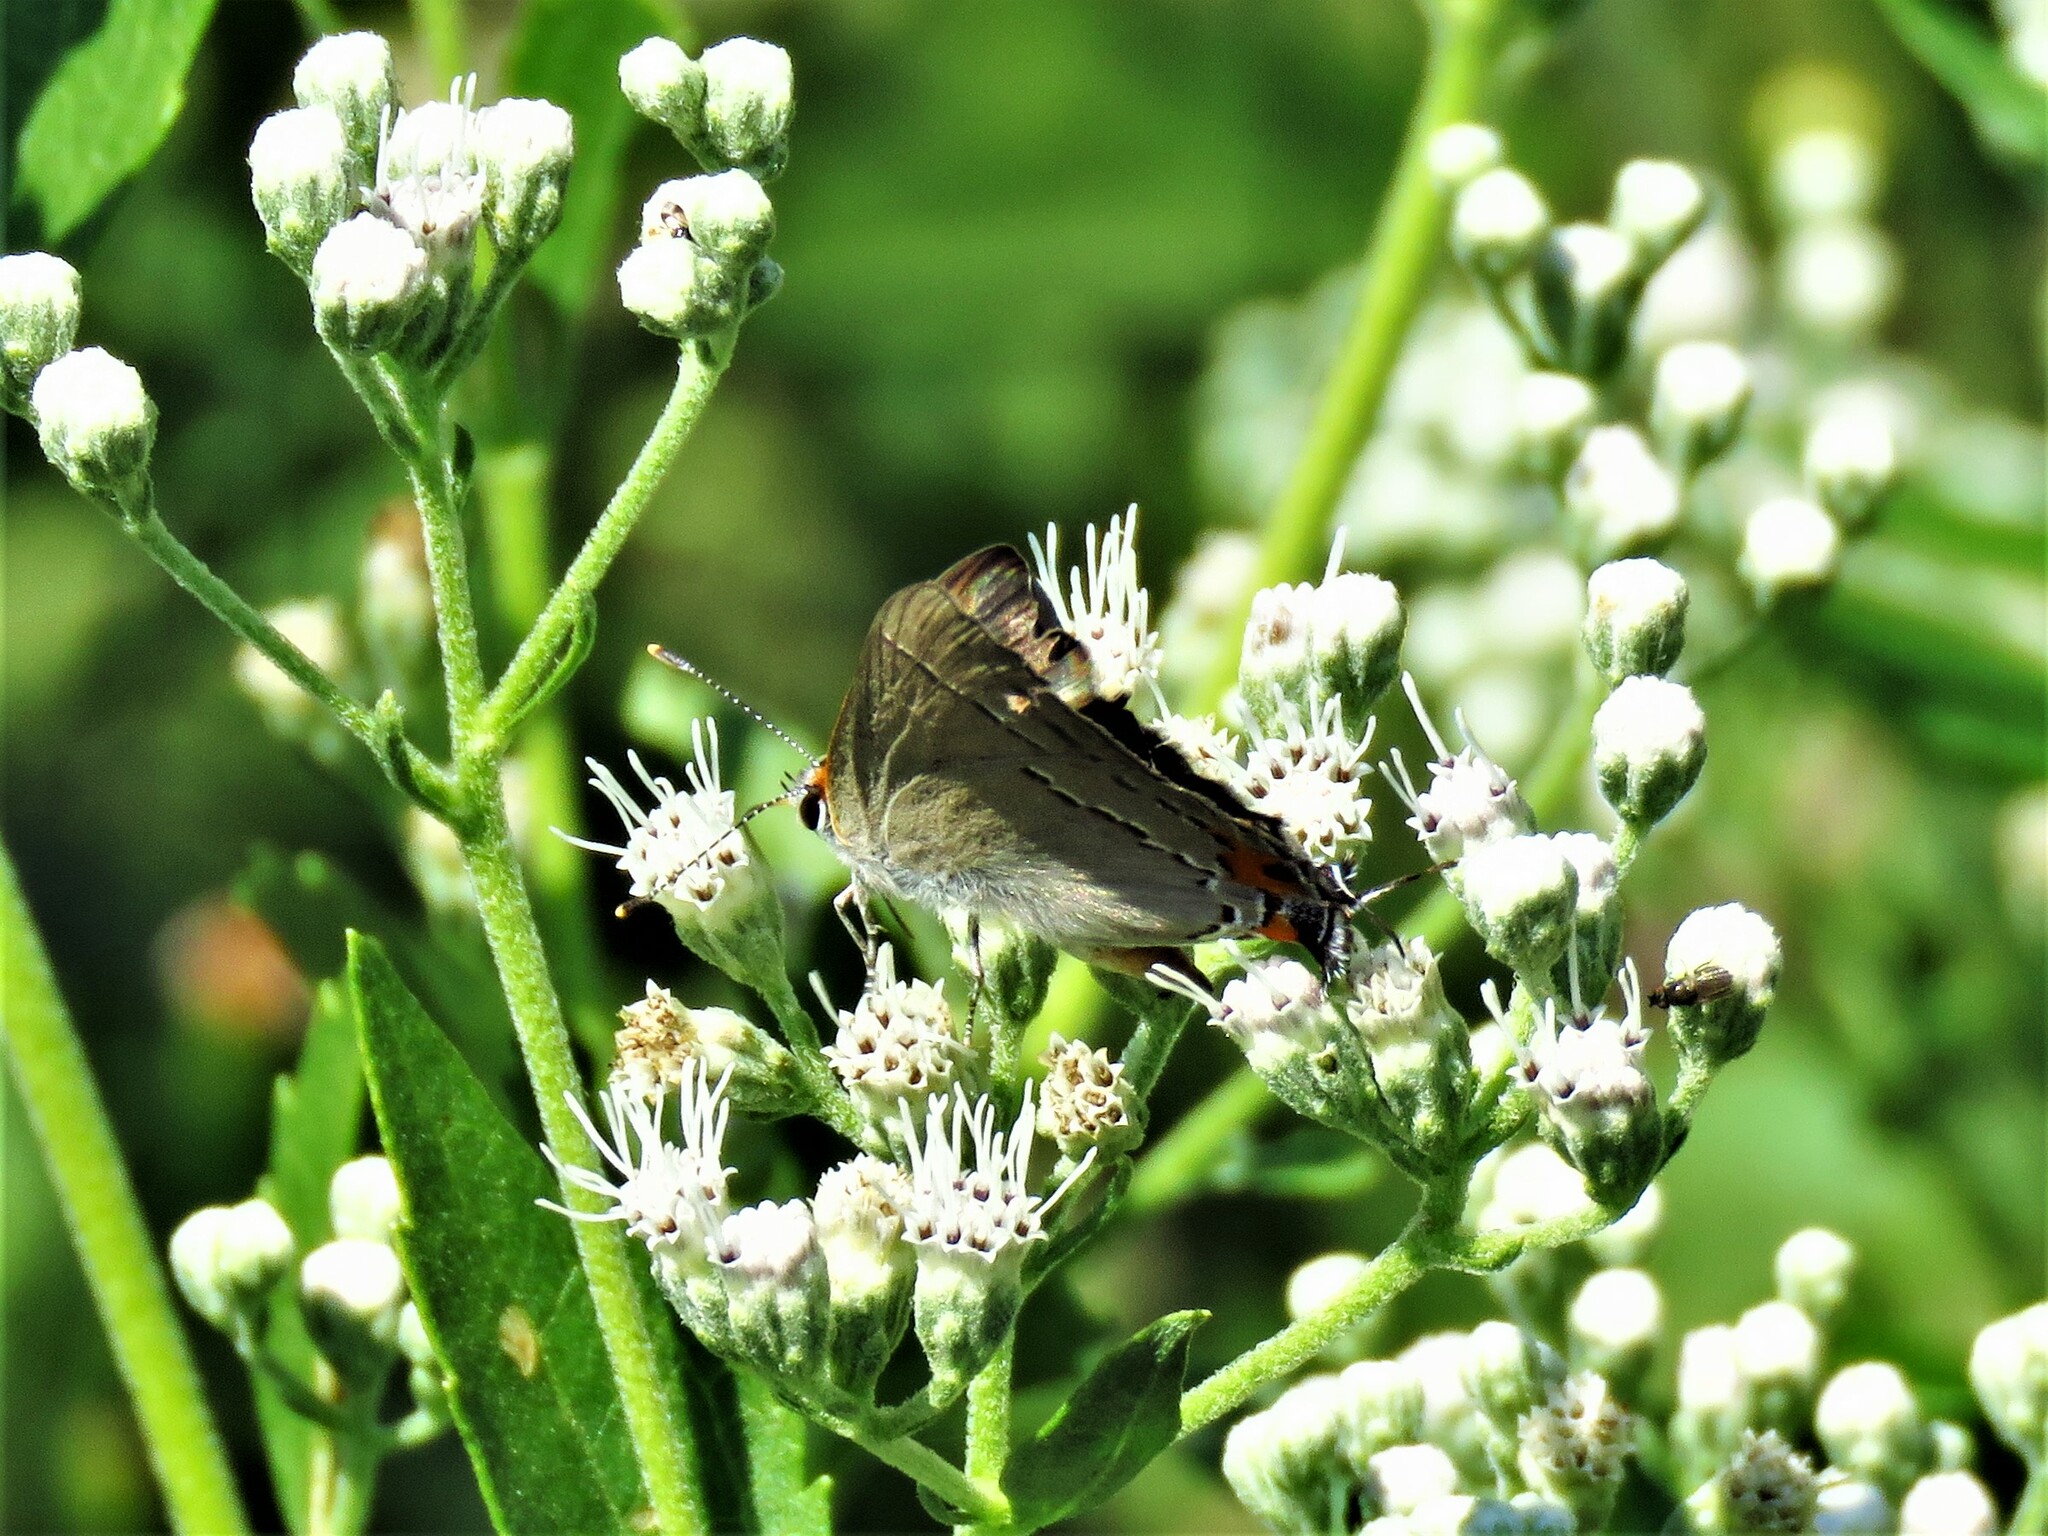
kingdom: Animalia
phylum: Arthropoda
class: Insecta
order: Lepidoptera
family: Lycaenidae
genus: Strymon
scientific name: Strymon melinus
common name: Gray hairstreak
